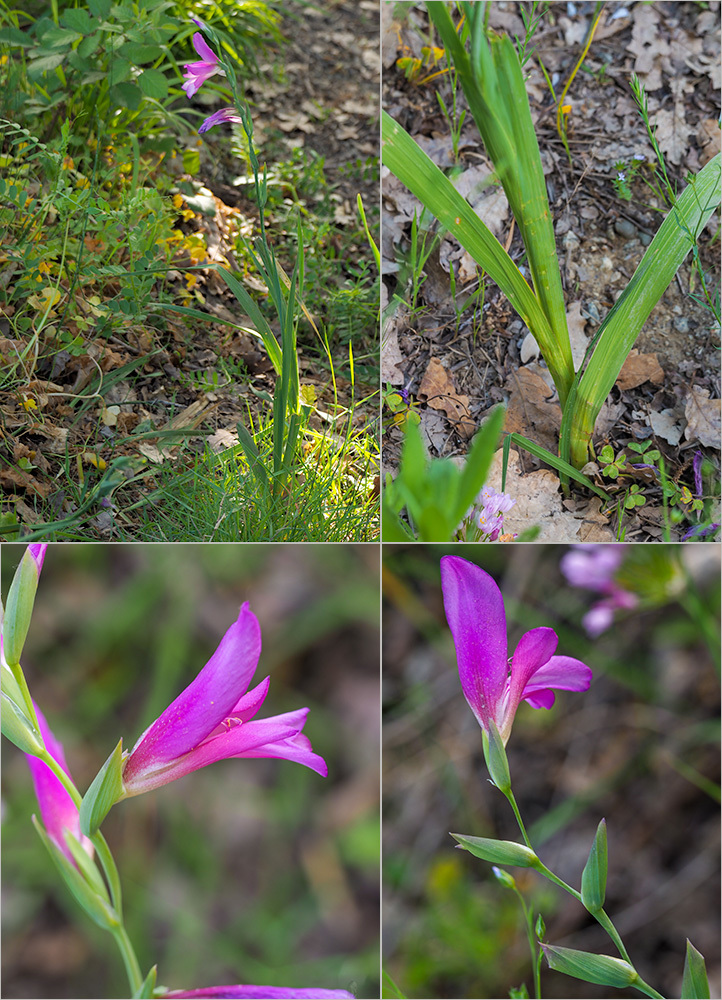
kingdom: Plantae
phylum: Tracheophyta
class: Liliopsida
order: Asparagales
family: Iridaceae
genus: Gladiolus
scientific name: Gladiolus italicus
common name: Field gladiolus
